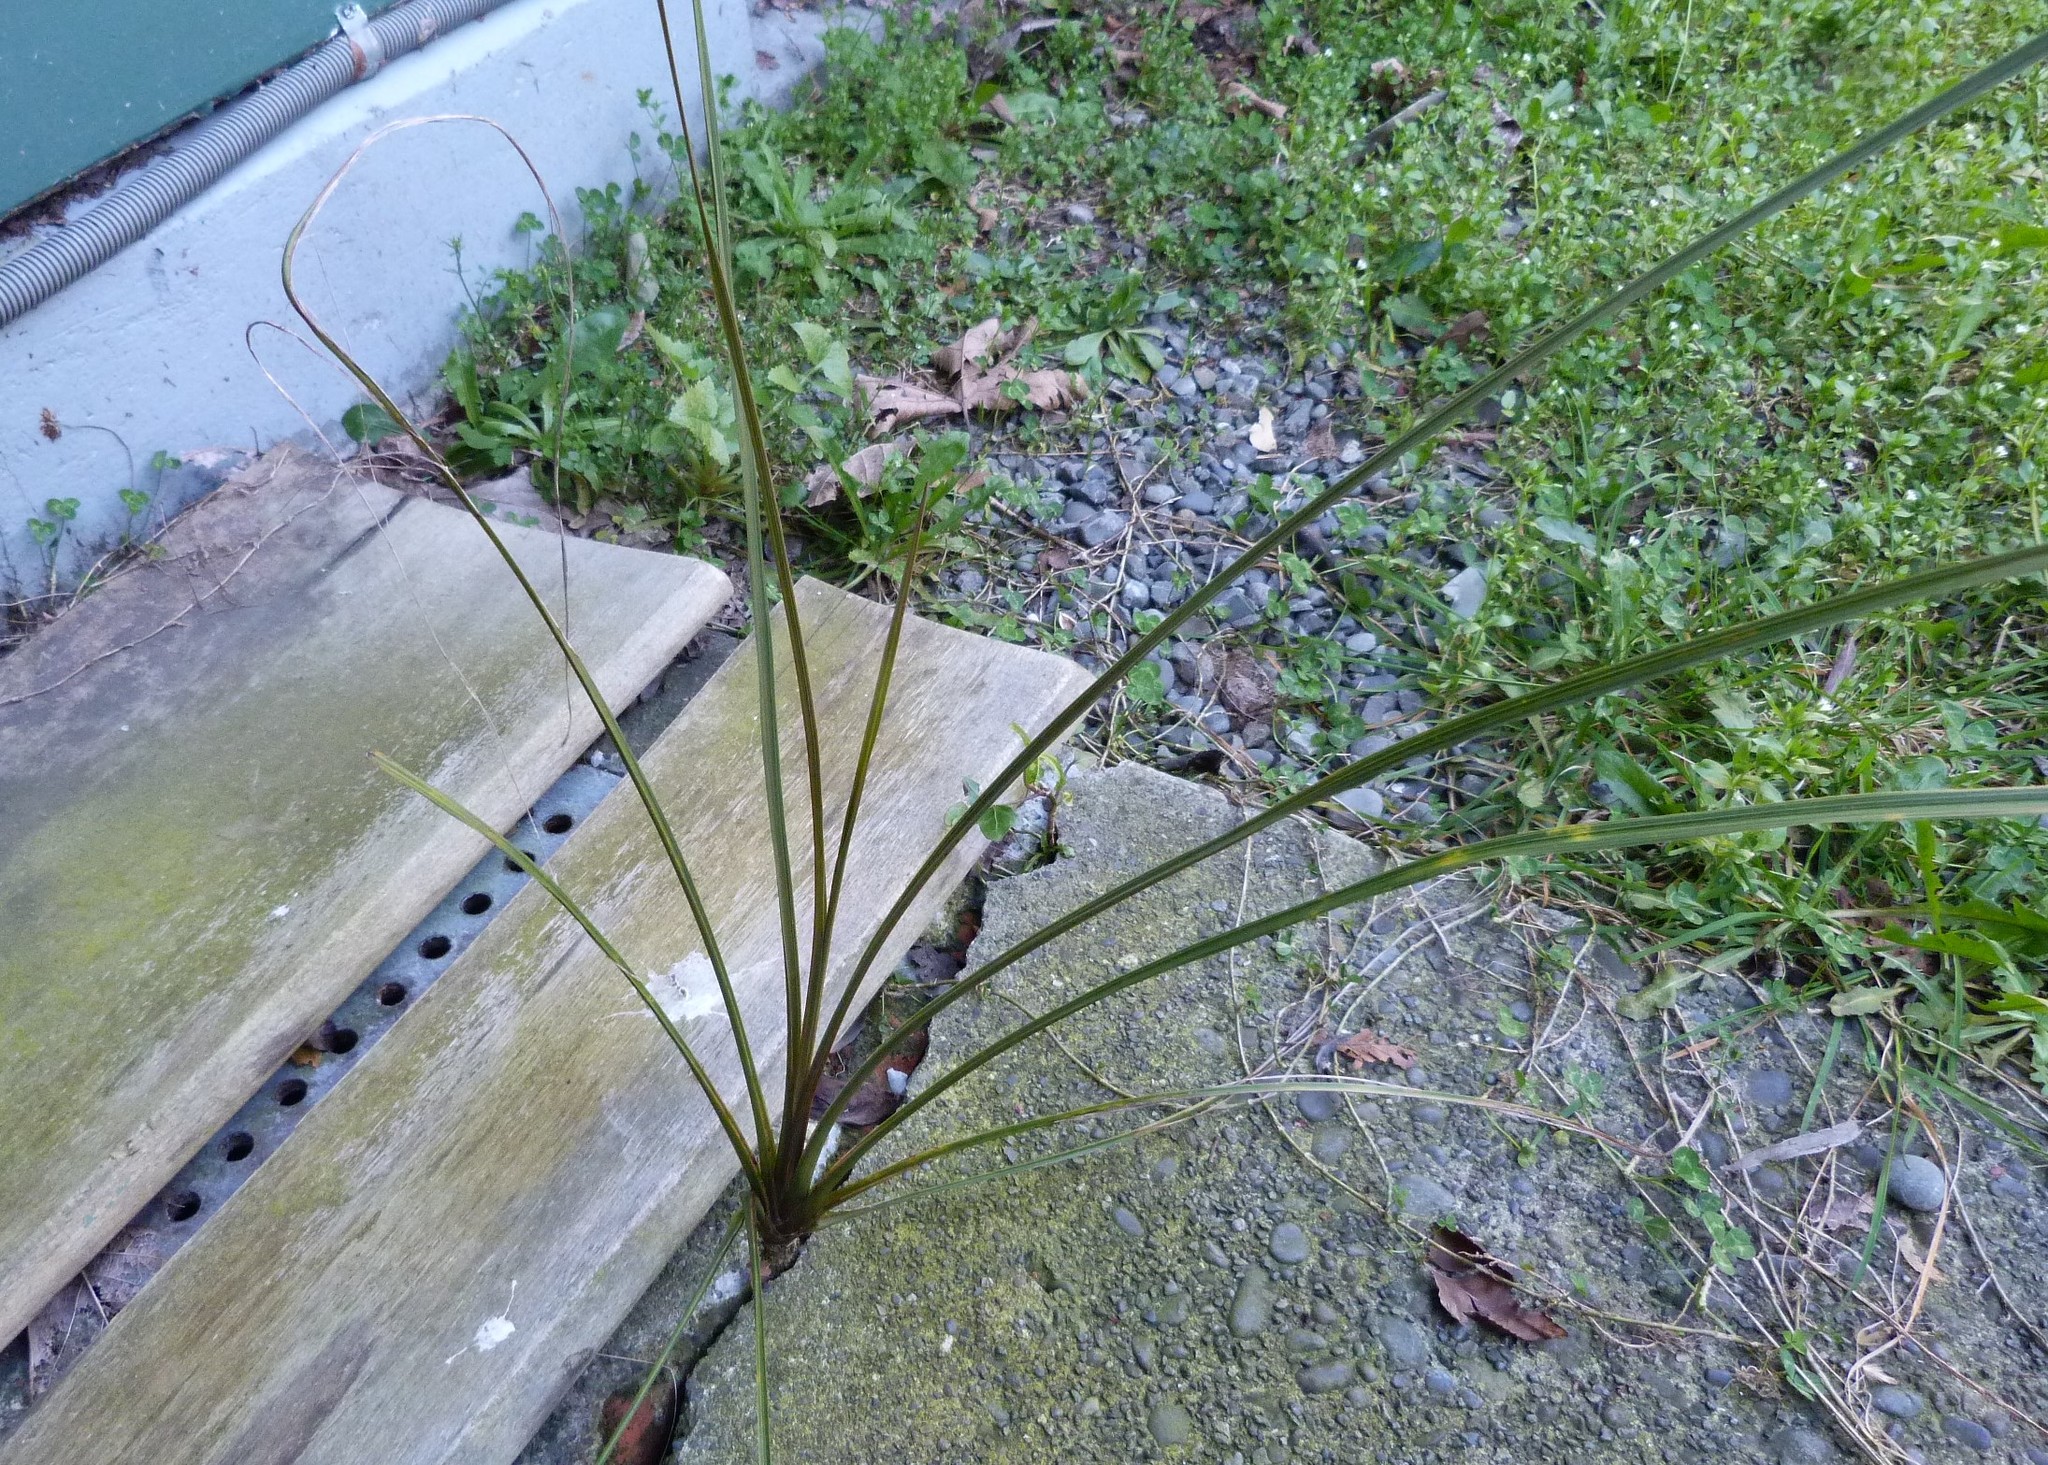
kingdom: Plantae
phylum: Tracheophyta
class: Liliopsida
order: Asparagales
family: Asparagaceae
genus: Cordyline
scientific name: Cordyline australis
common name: Cabbage-palm
